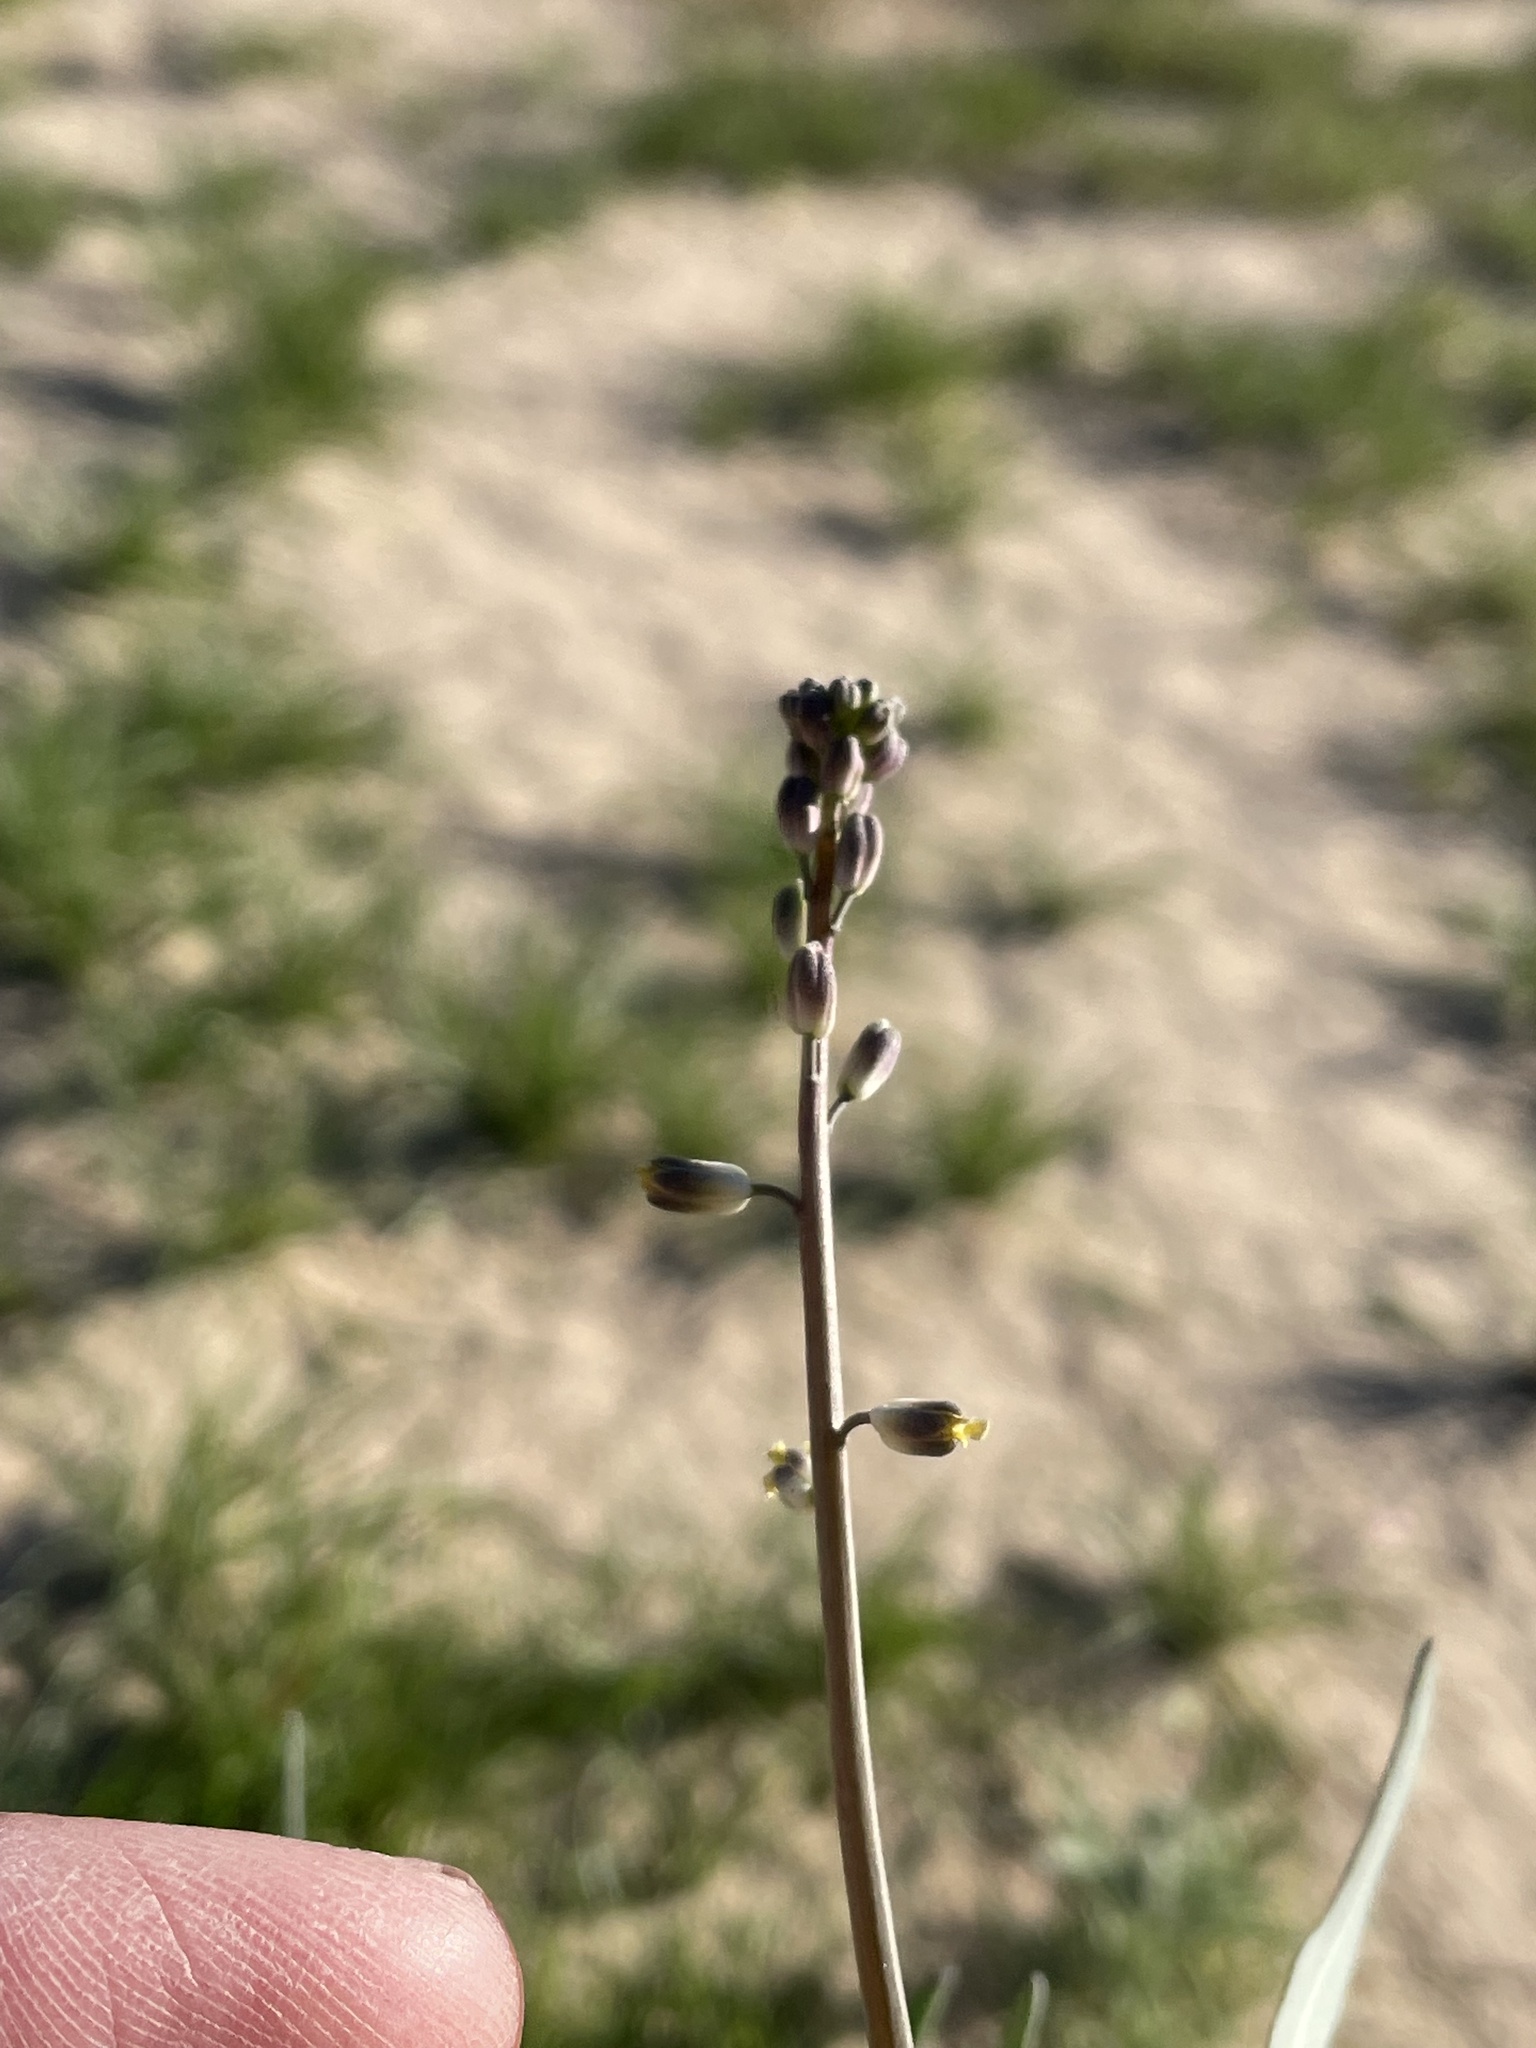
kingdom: Plantae
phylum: Tracheophyta
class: Magnoliopsida
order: Brassicales
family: Brassicaceae
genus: Streptanthus
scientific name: Streptanthus longirostris
